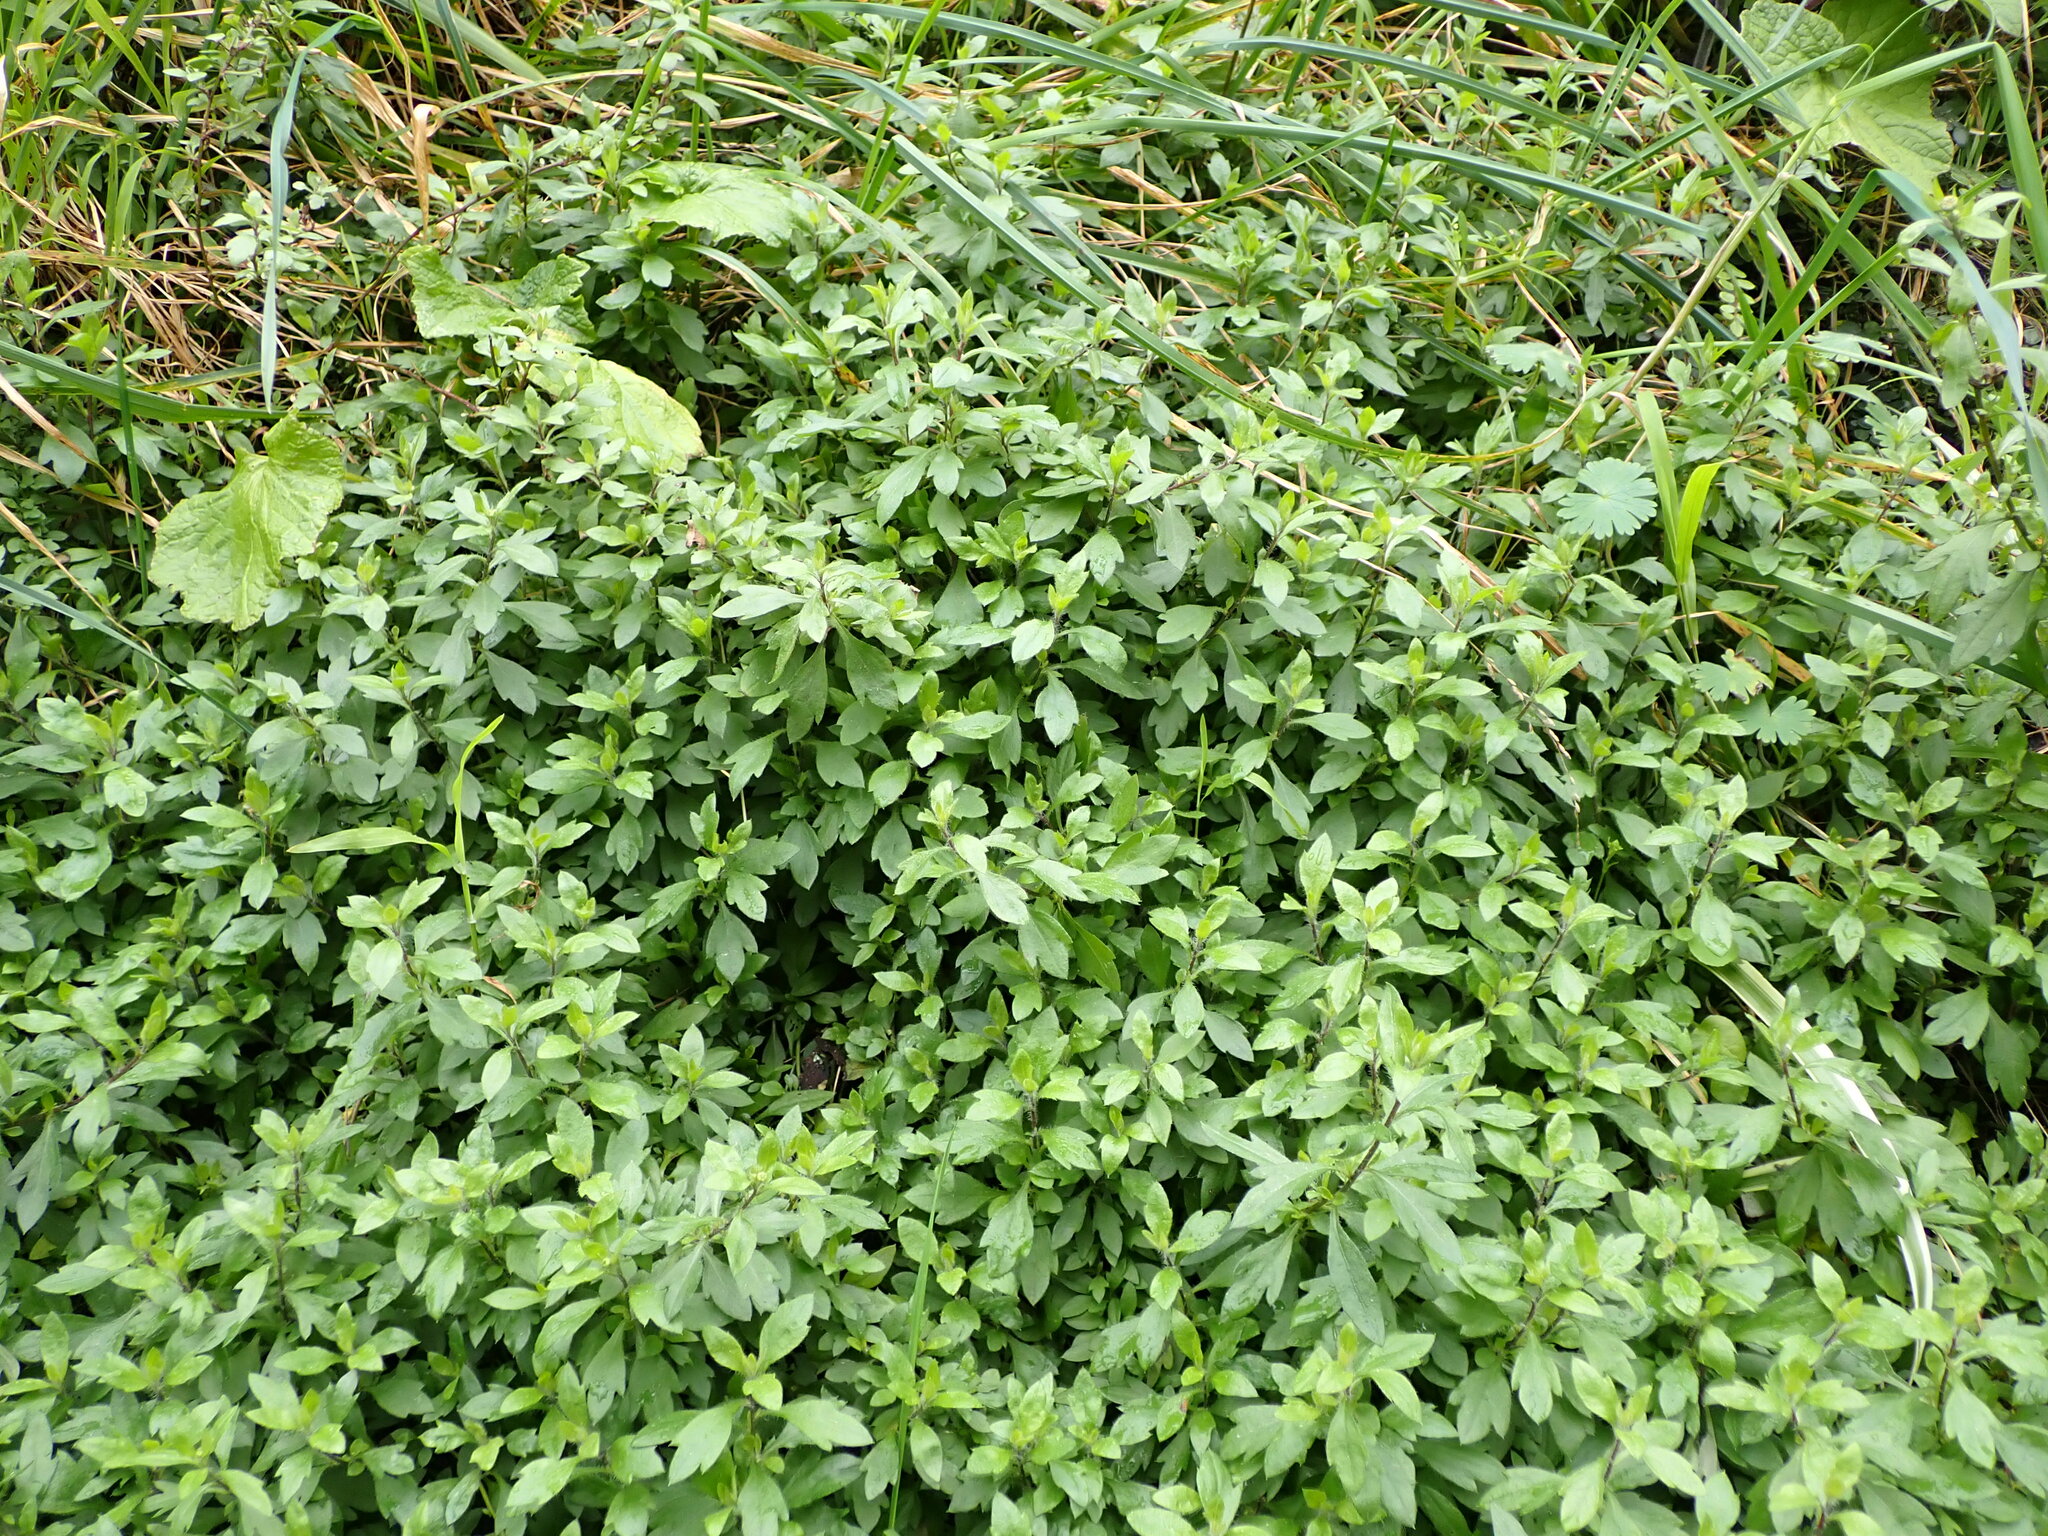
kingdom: Plantae
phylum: Tracheophyta
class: Magnoliopsida
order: Asterales
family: Asteraceae
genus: Erigeron
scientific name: Erigeron karvinskianus
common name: Mexican fleabane
